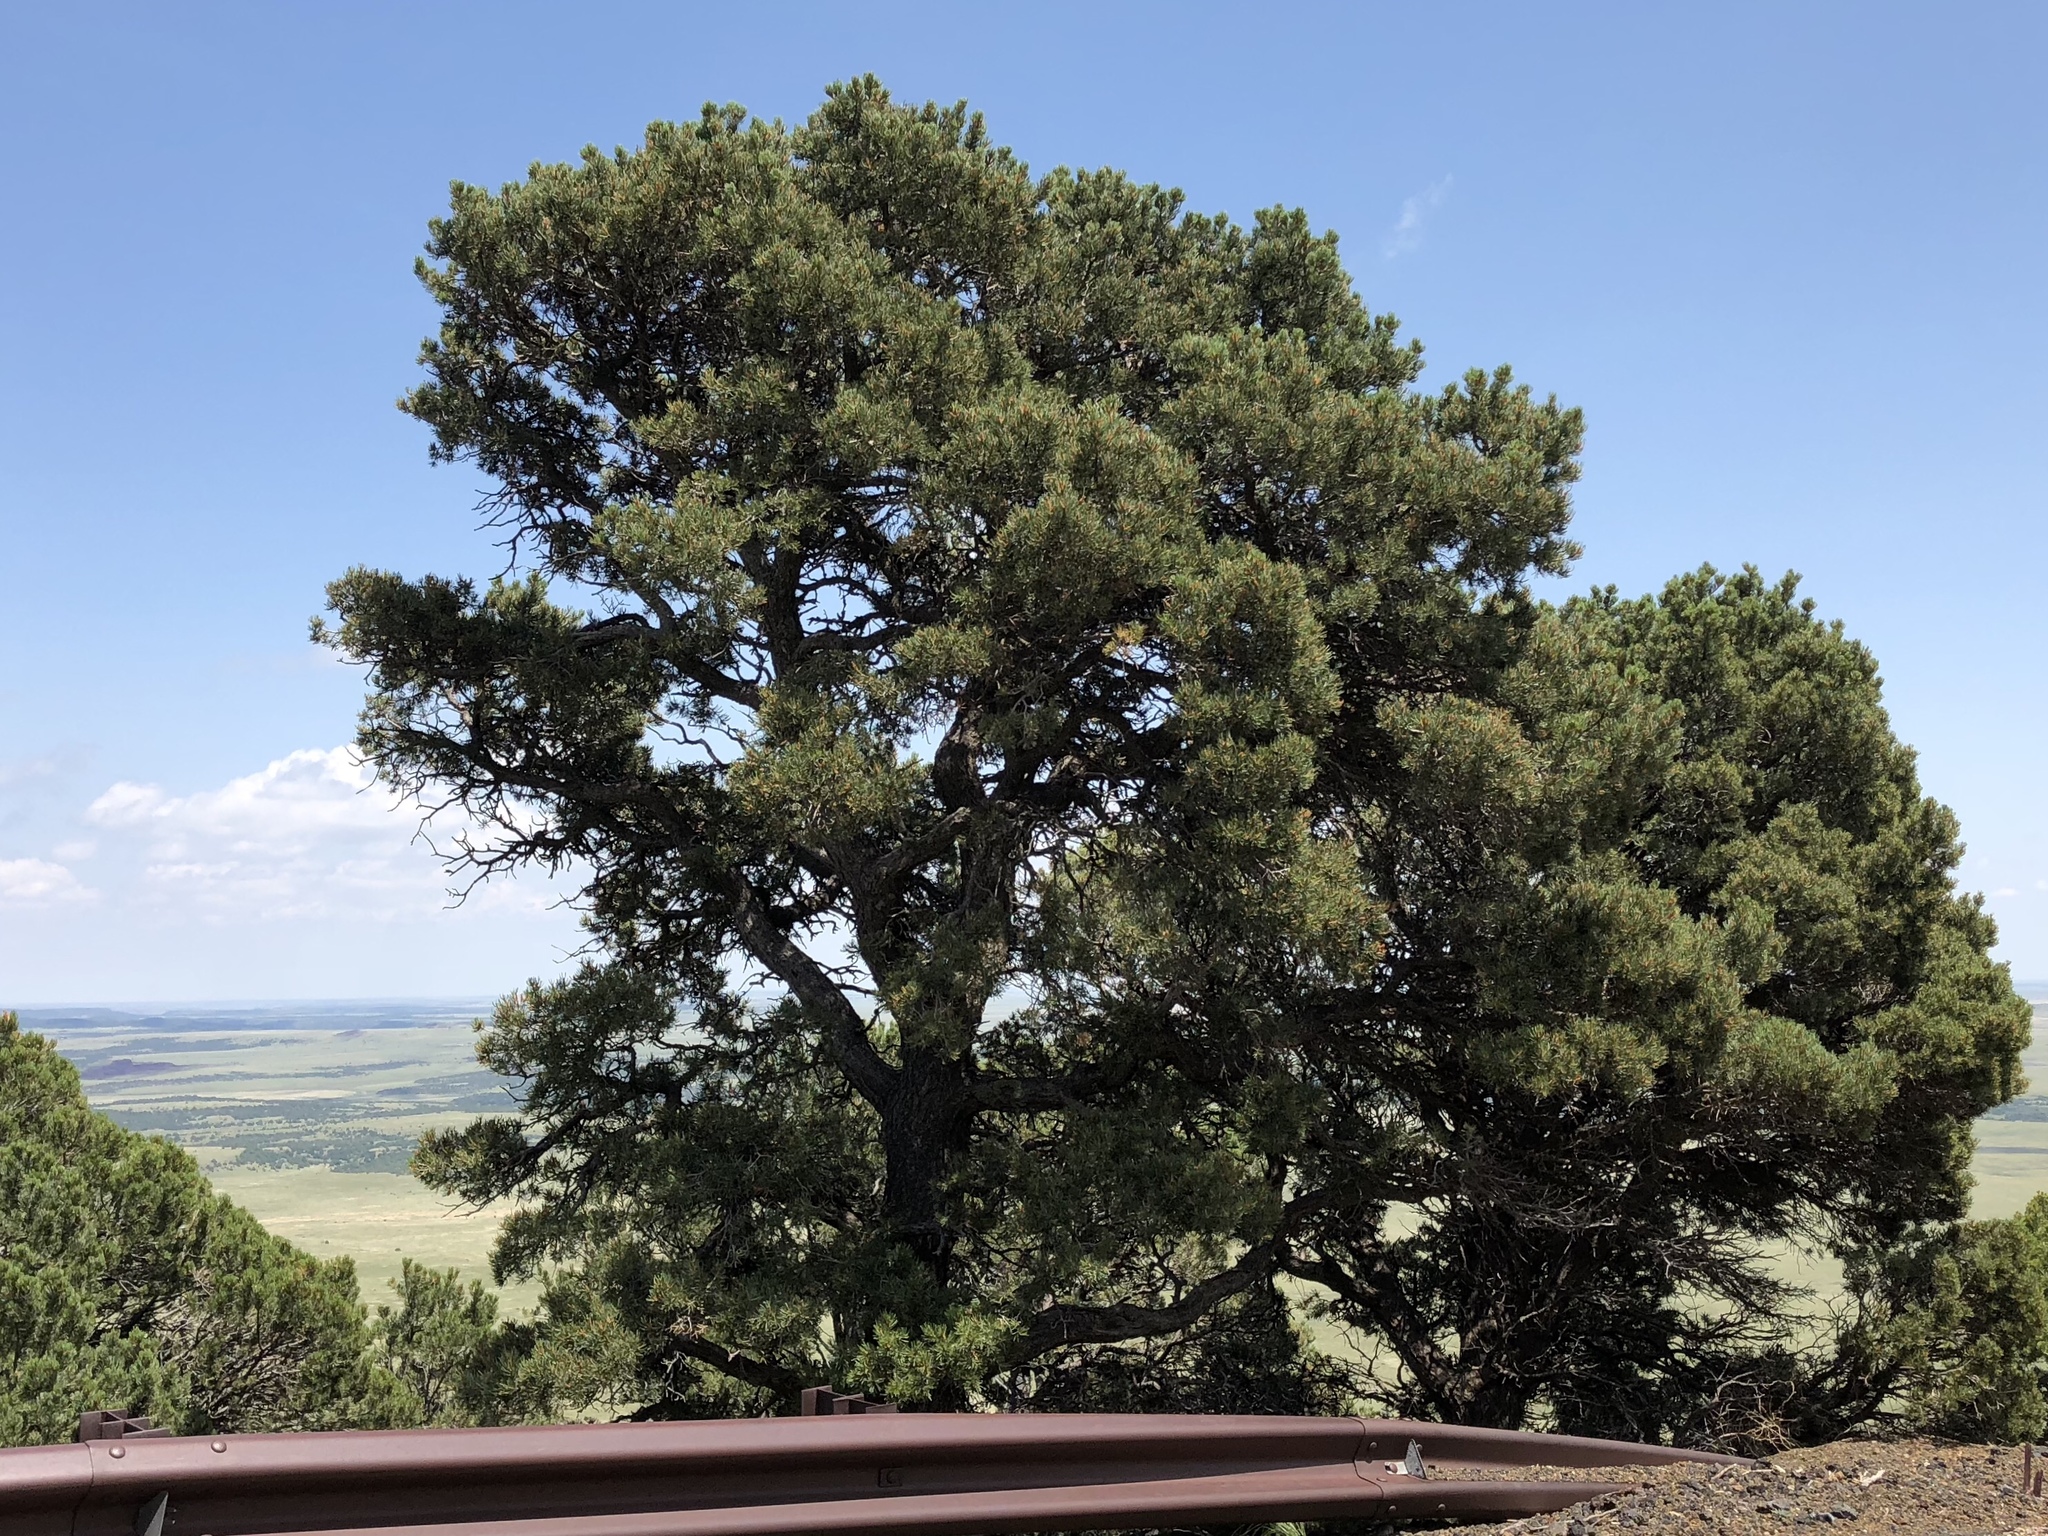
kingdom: Plantae
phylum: Tracheophyta
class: Pinopsida
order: Pinales
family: Pinaceae
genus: Pinus
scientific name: Pinus edulis
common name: Colorado pinyon
